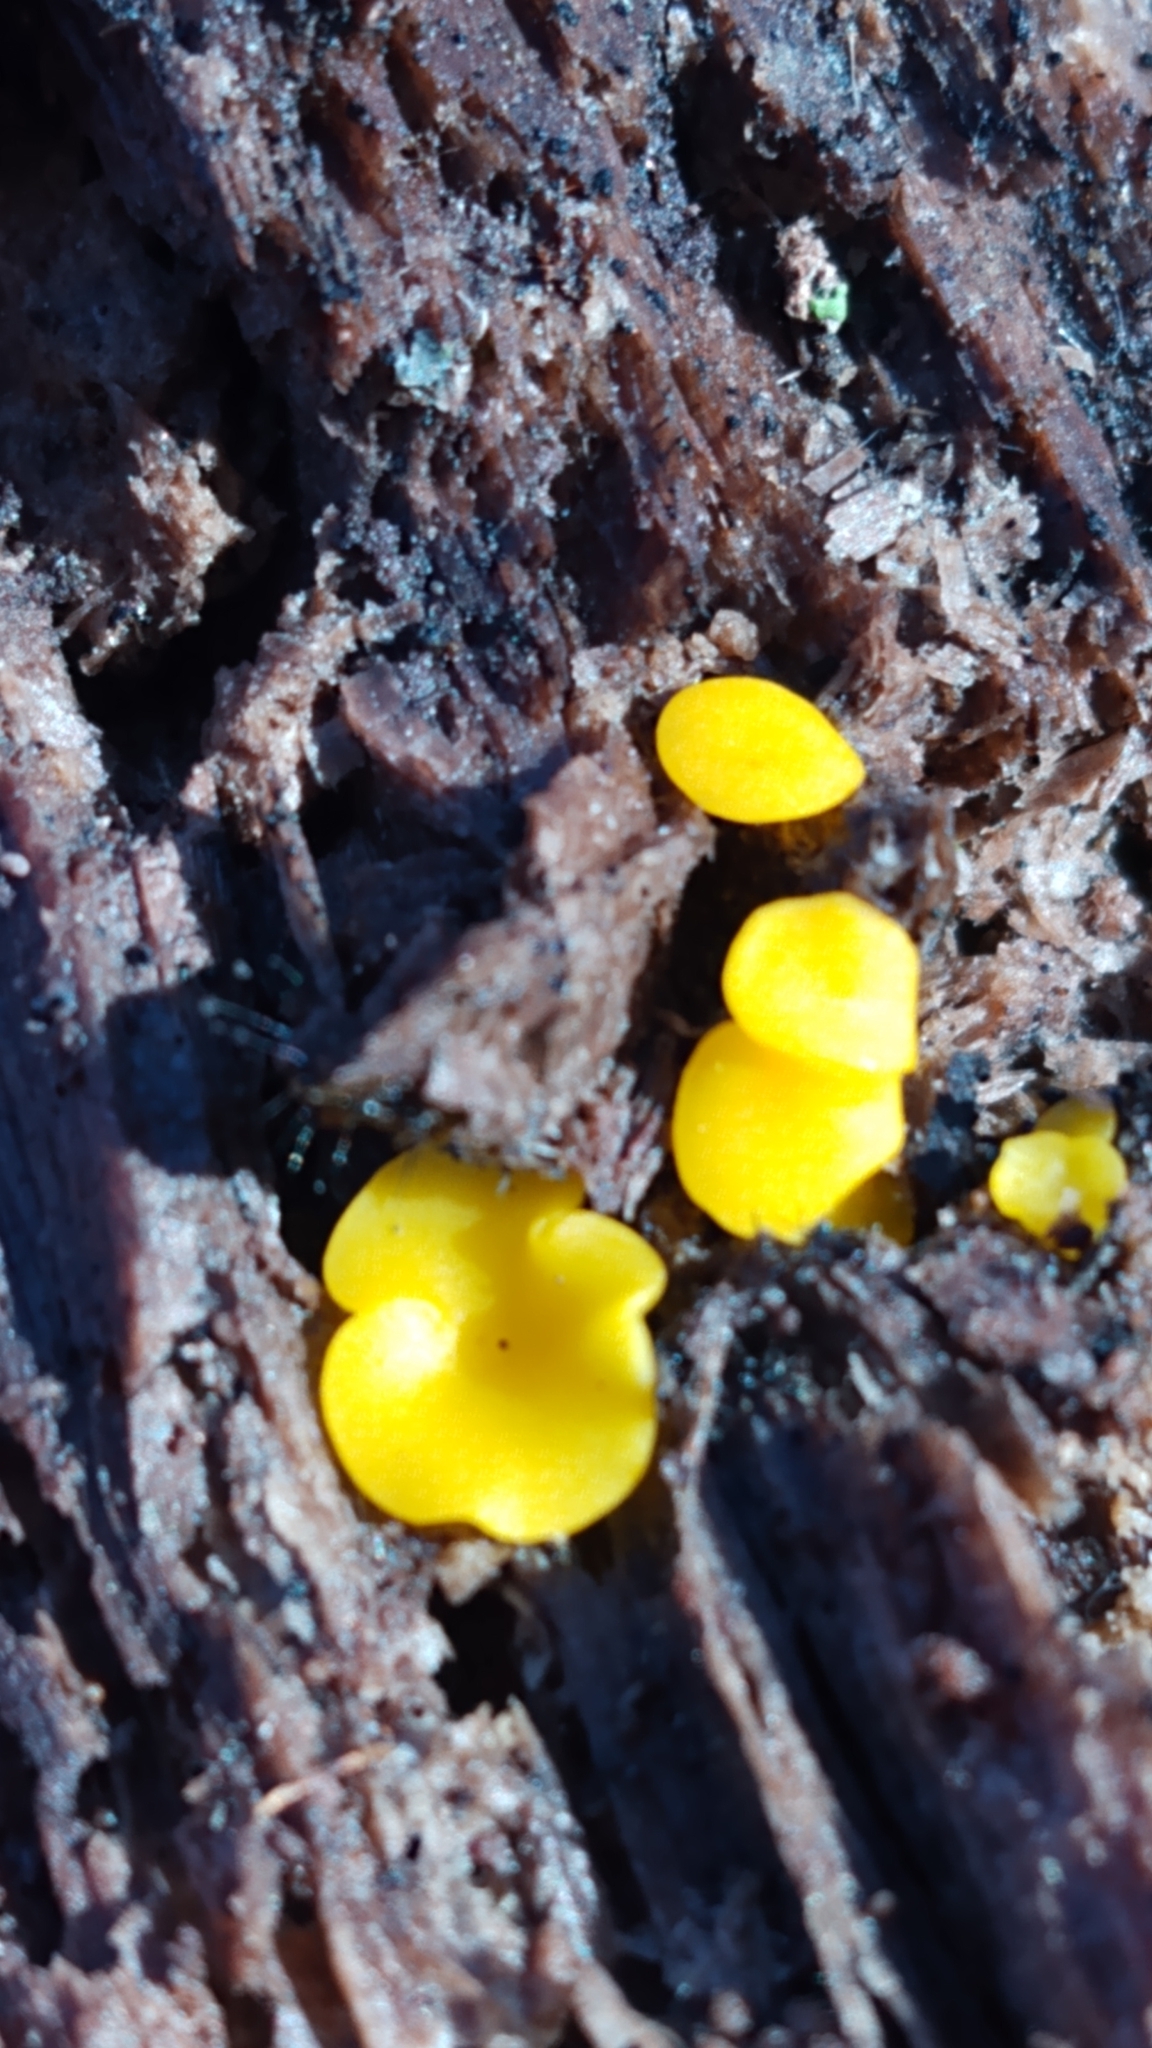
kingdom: Fungi
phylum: Ascomycota
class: Leotiomycetes
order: Helotiales
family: Pezizellaceae
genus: Calycina
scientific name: Calycina citrina
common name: Yellow fairy cups
